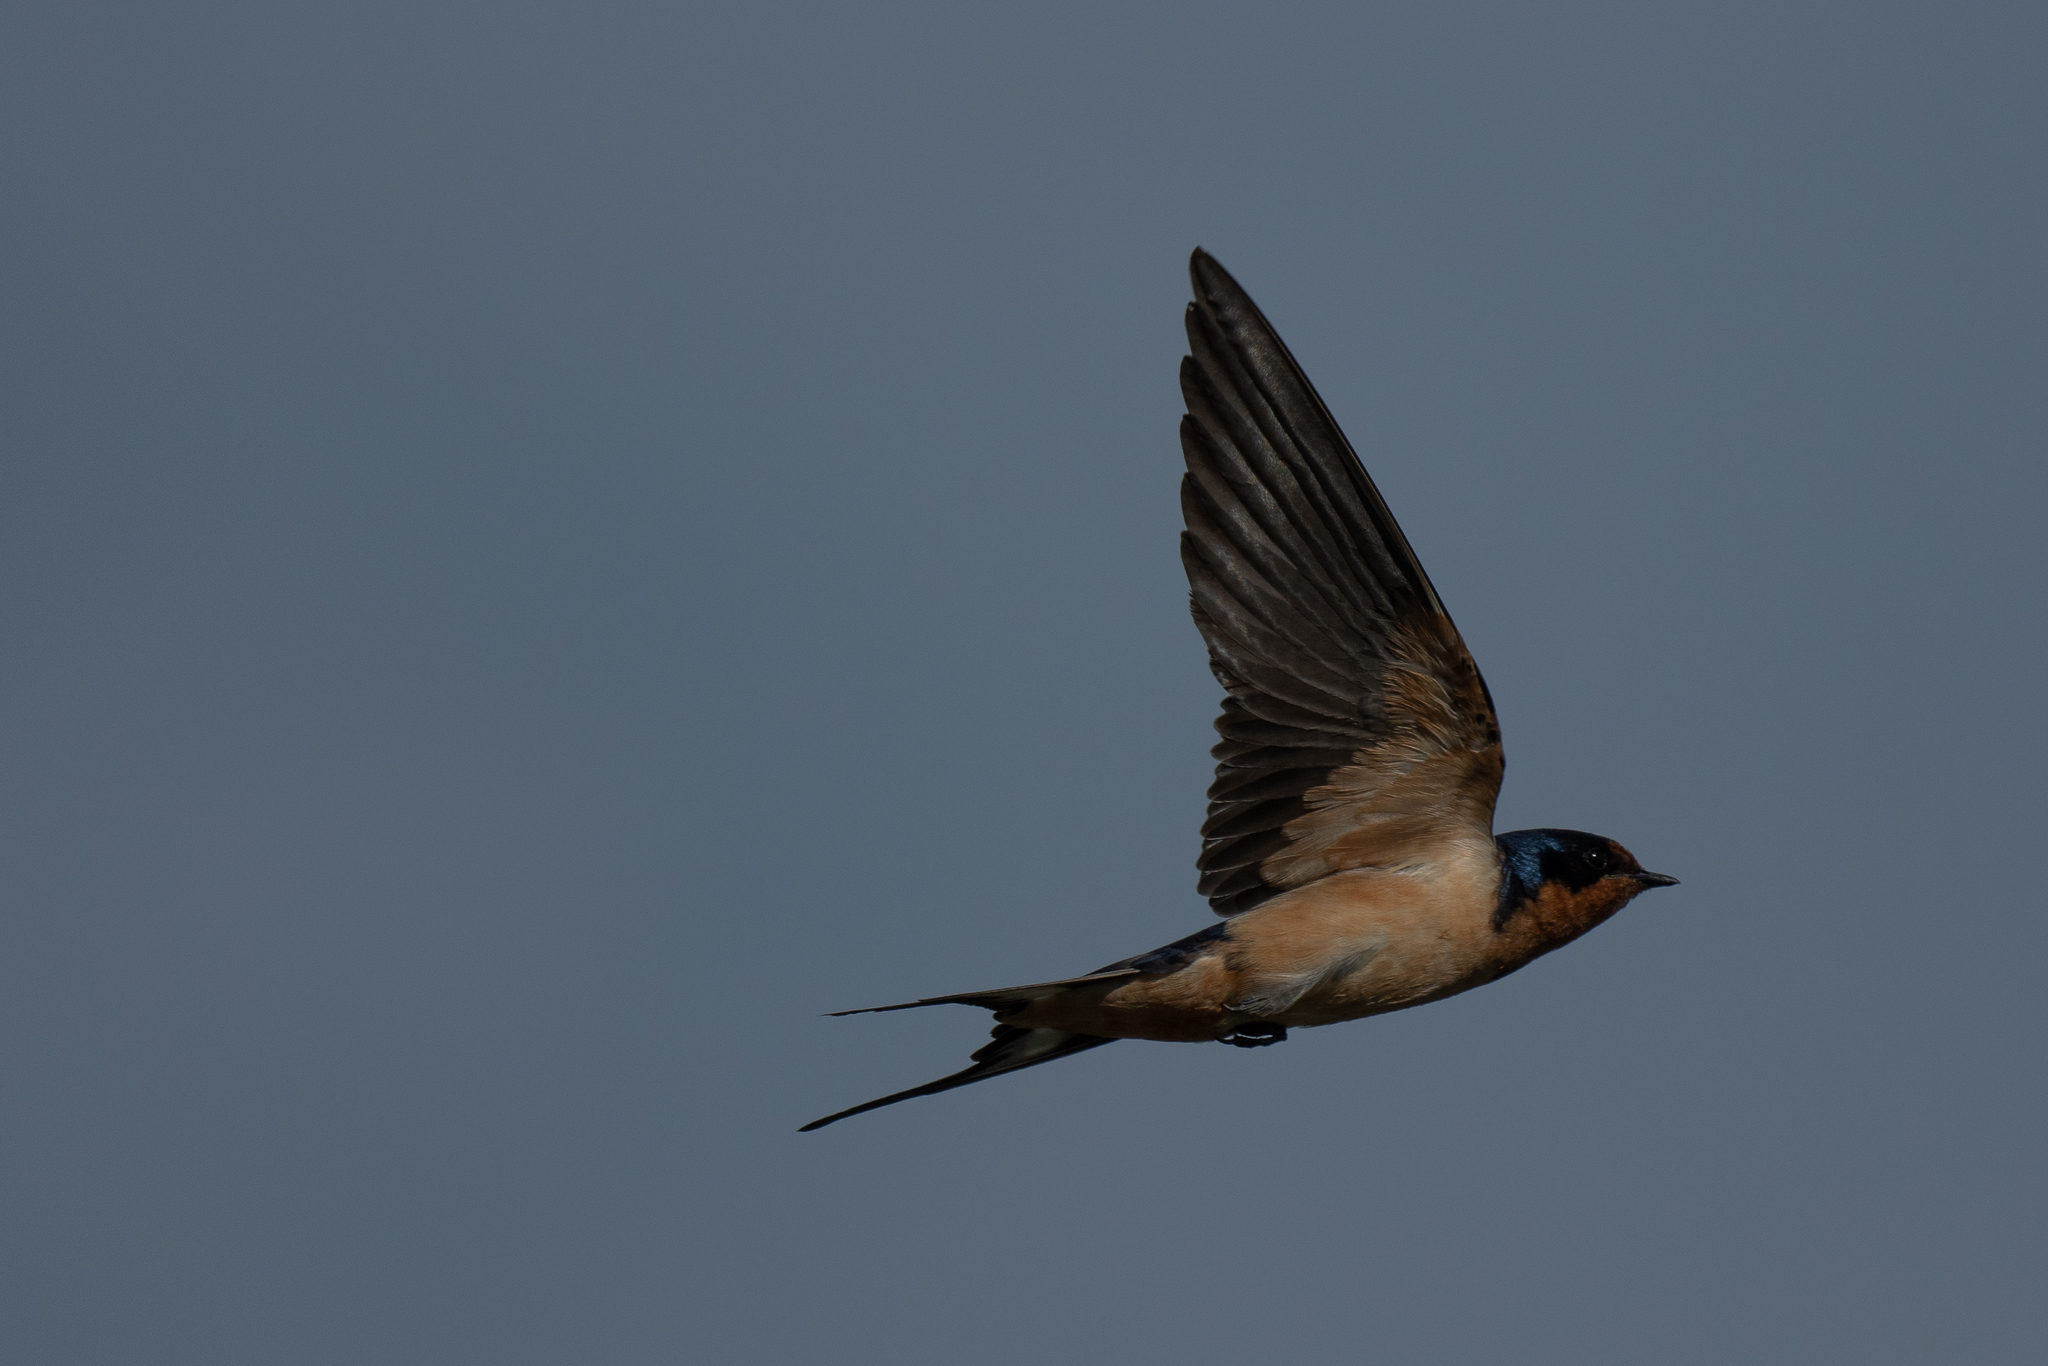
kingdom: Animalia
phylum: Chordata
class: Aves
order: Passeriformes
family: Hirundinidae
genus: Hirundo
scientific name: Hirundo rustica
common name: Barn swallow
